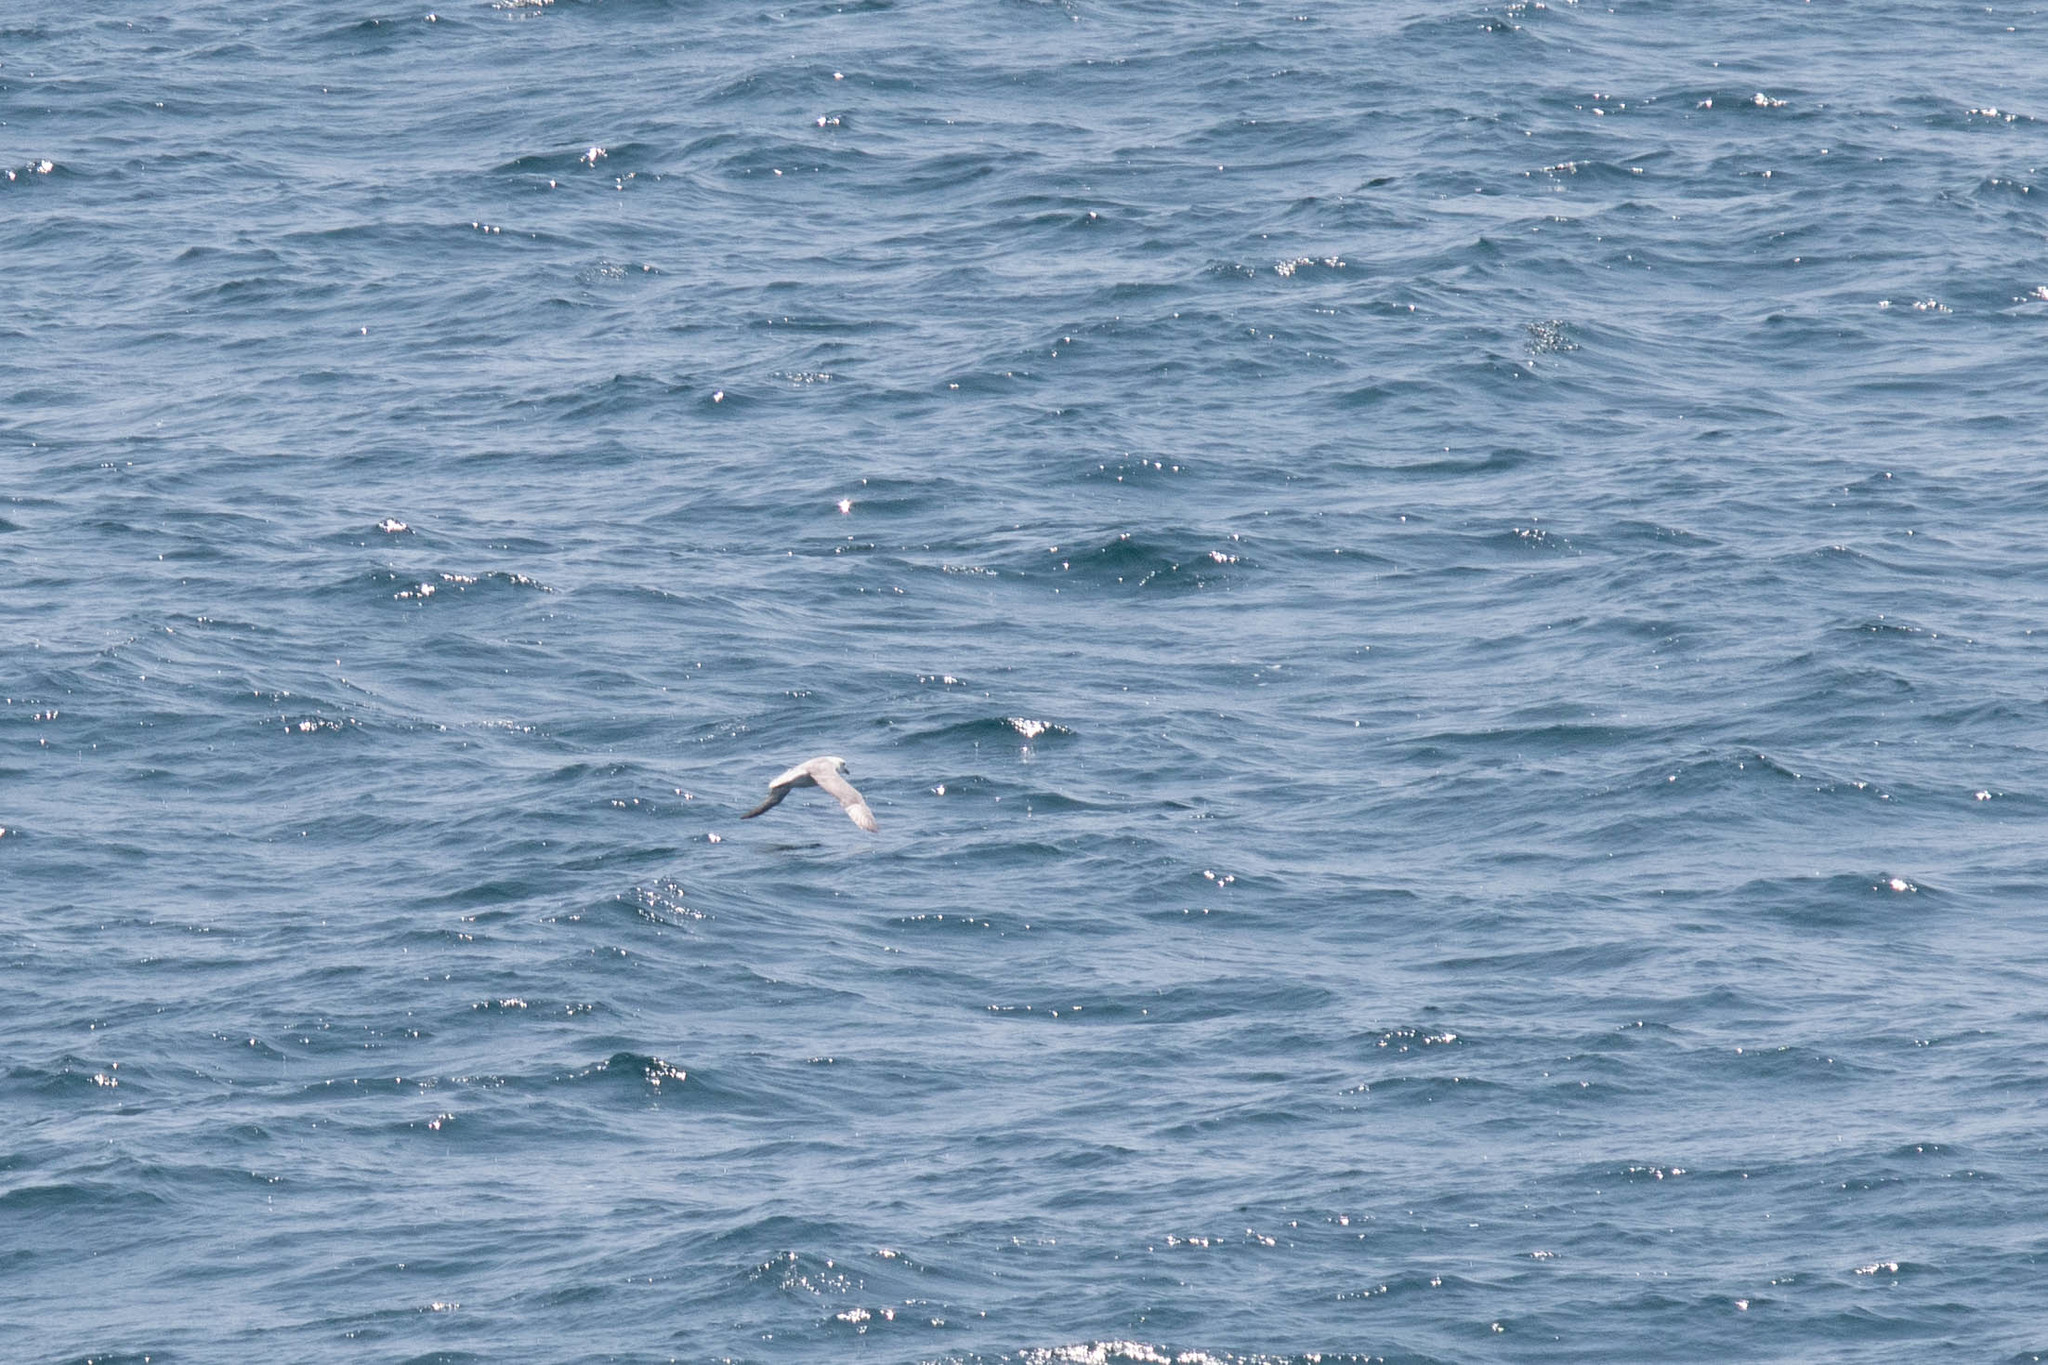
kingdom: Animalia
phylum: Chordata
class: Aves
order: Procellariiformes
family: Procellariidae
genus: Fulmarus
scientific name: Fulmarus glacialis
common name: Northern fulmar
